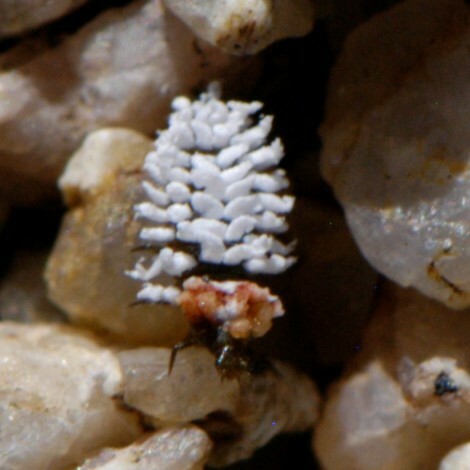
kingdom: Animalia
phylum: Arthropoda
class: Insecta
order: Coleoptera
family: Coccinellidae
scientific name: Coccinellidae
